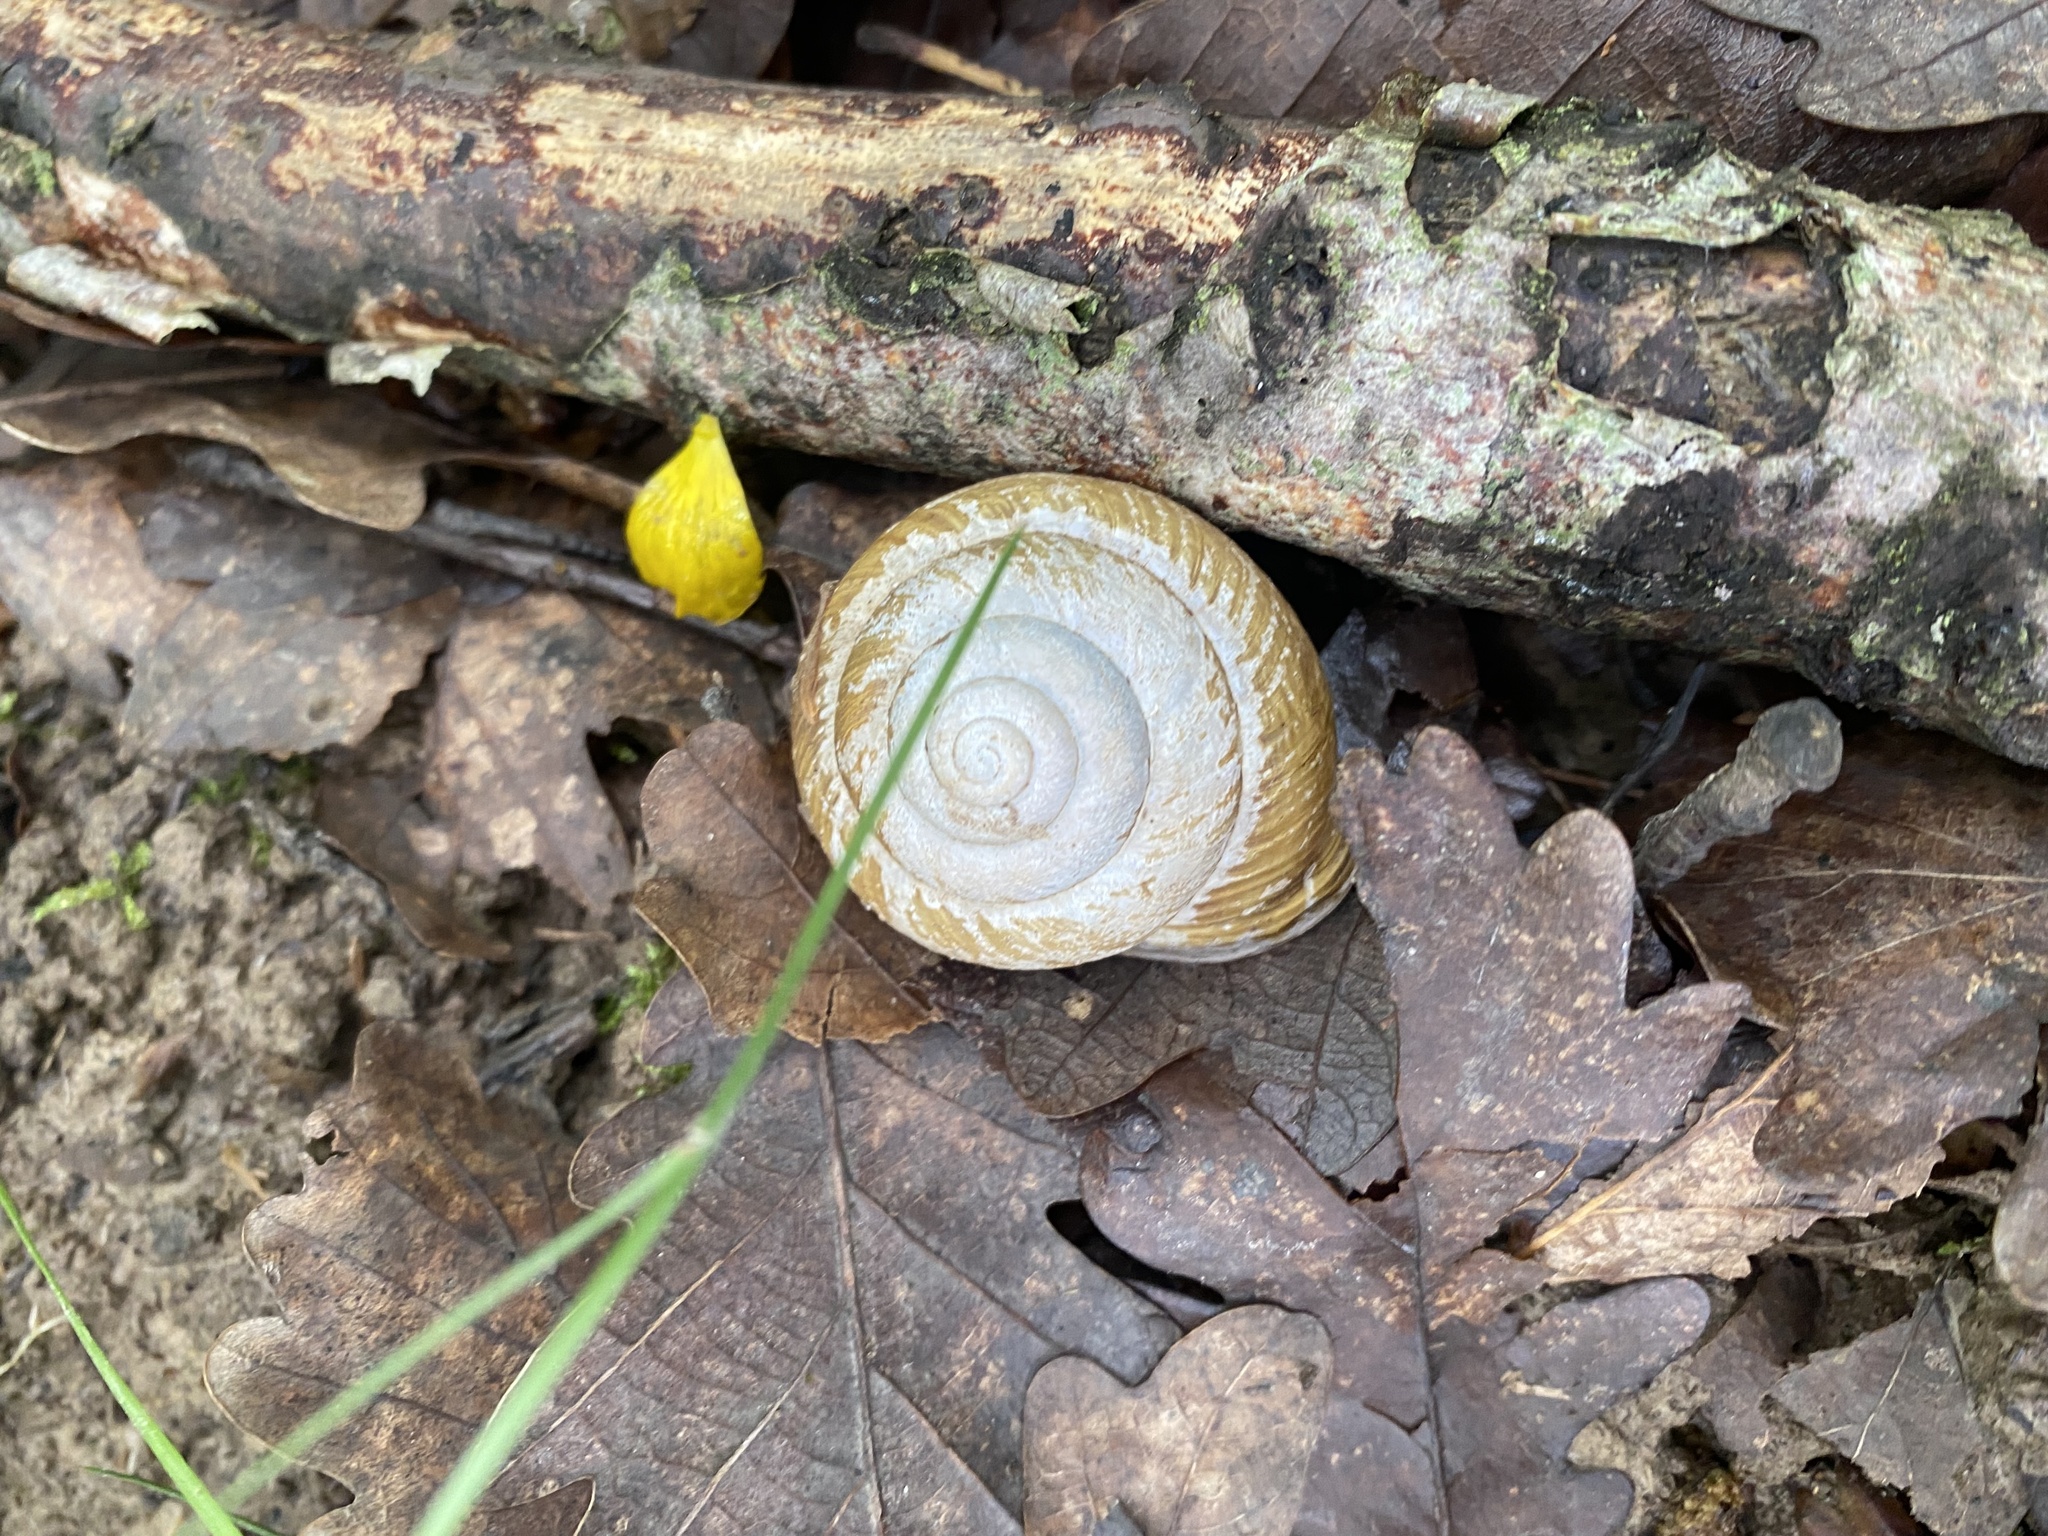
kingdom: Animalia
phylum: Mollusca
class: Gastropoda
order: Stylommatophora
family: Helicidae
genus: Caucasotachea
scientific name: Caucasotachea atrolabiata
